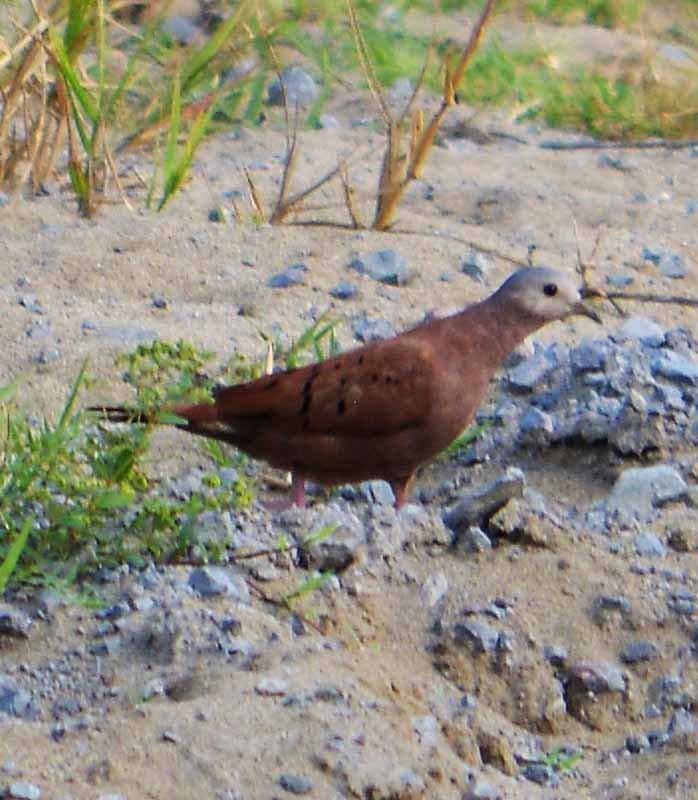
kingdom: Animalia
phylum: Chordata
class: Aves
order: Columbiformes
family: Columbidae
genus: Columbina
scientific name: Columbina talpacoti
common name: Ruddy ground dove
